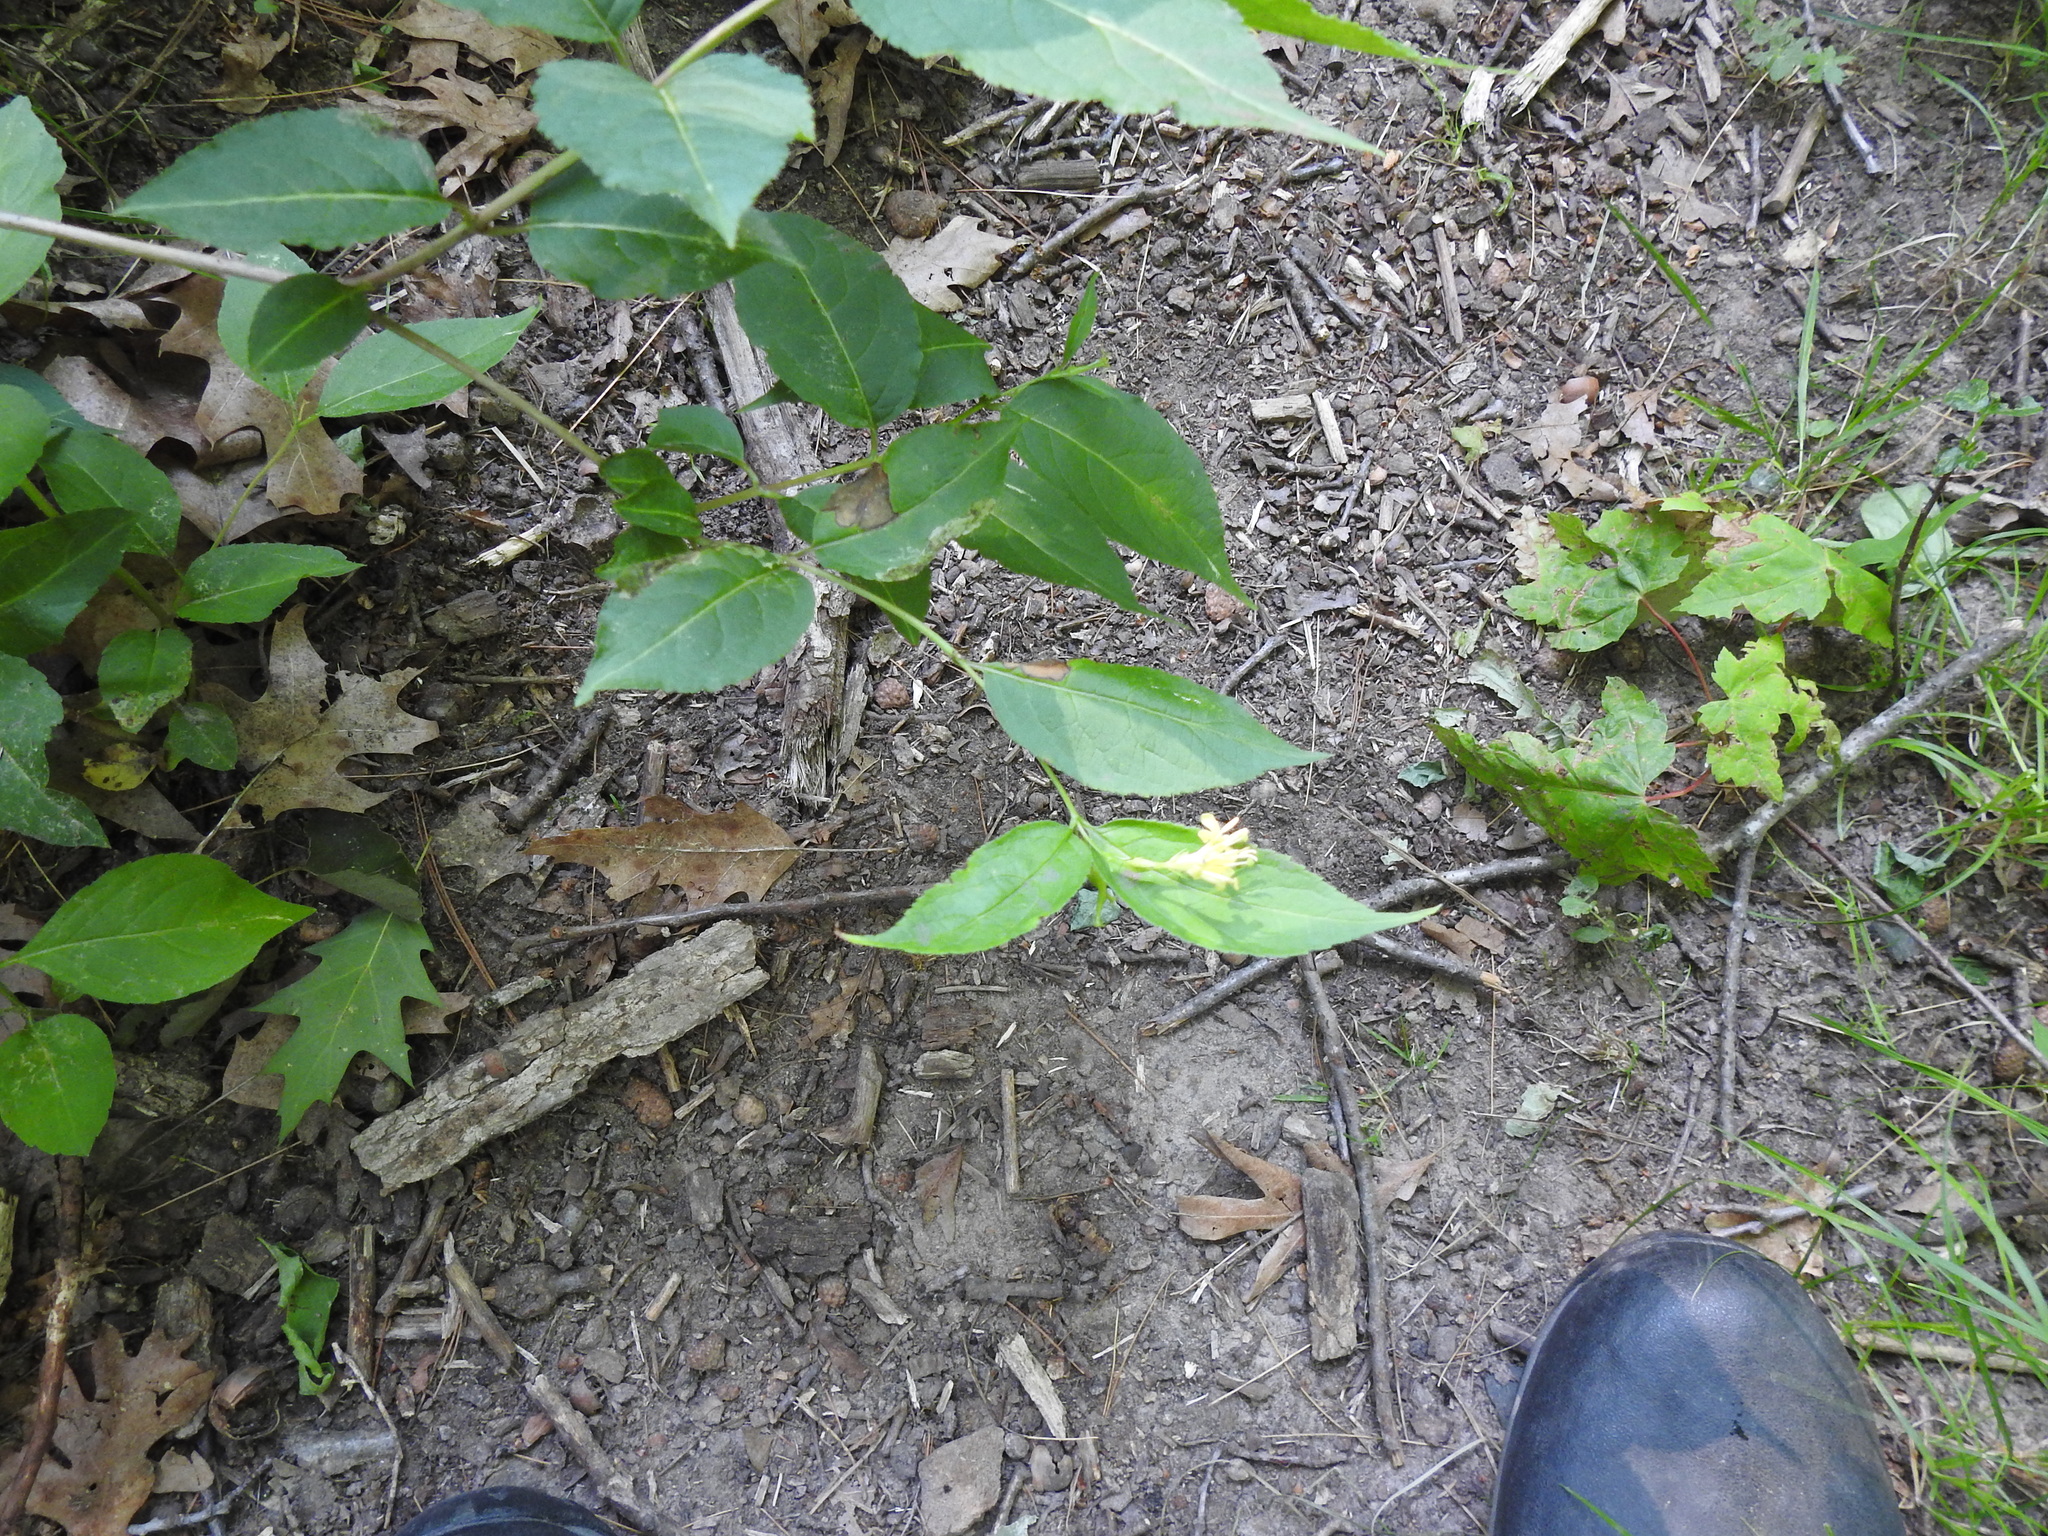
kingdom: Plantae
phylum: Tracheophyta
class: Magnoliopsida
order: Dipsacales
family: Caprifoliaceae
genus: Diervilla
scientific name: Diervilla lonicera
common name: Bush-honeysuckle
